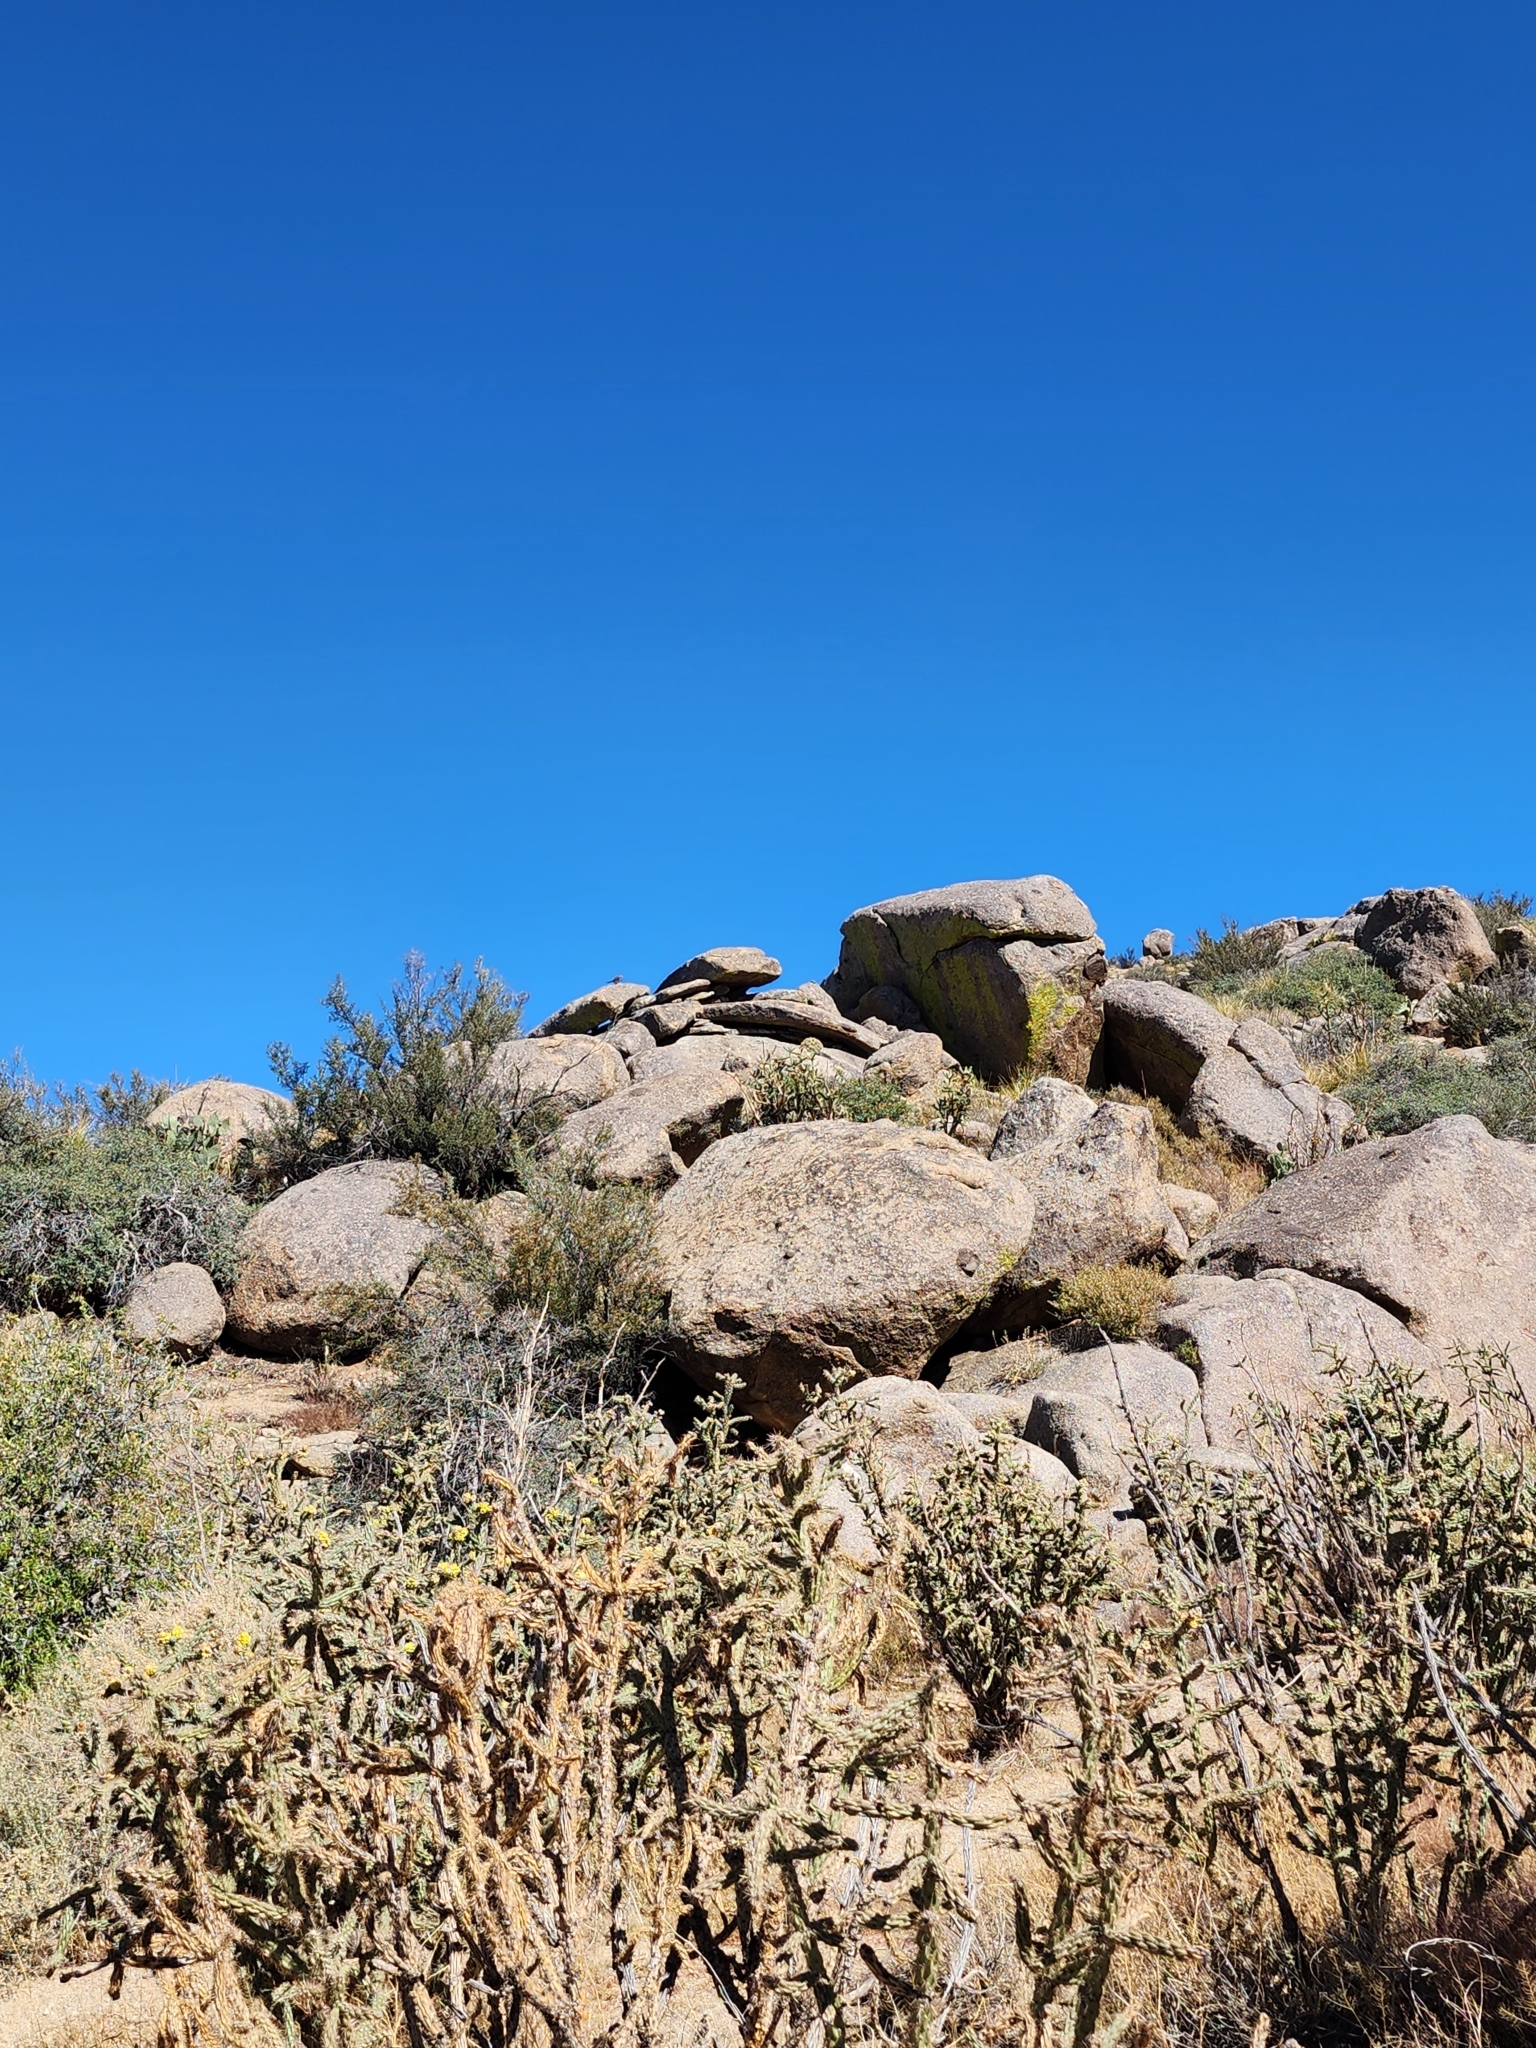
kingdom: Animalia
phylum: Chordata
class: Aves
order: Cuculiformes
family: Cuculidae
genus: Geococcyx
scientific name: Geococcyx californianus
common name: Greater roadrunner
